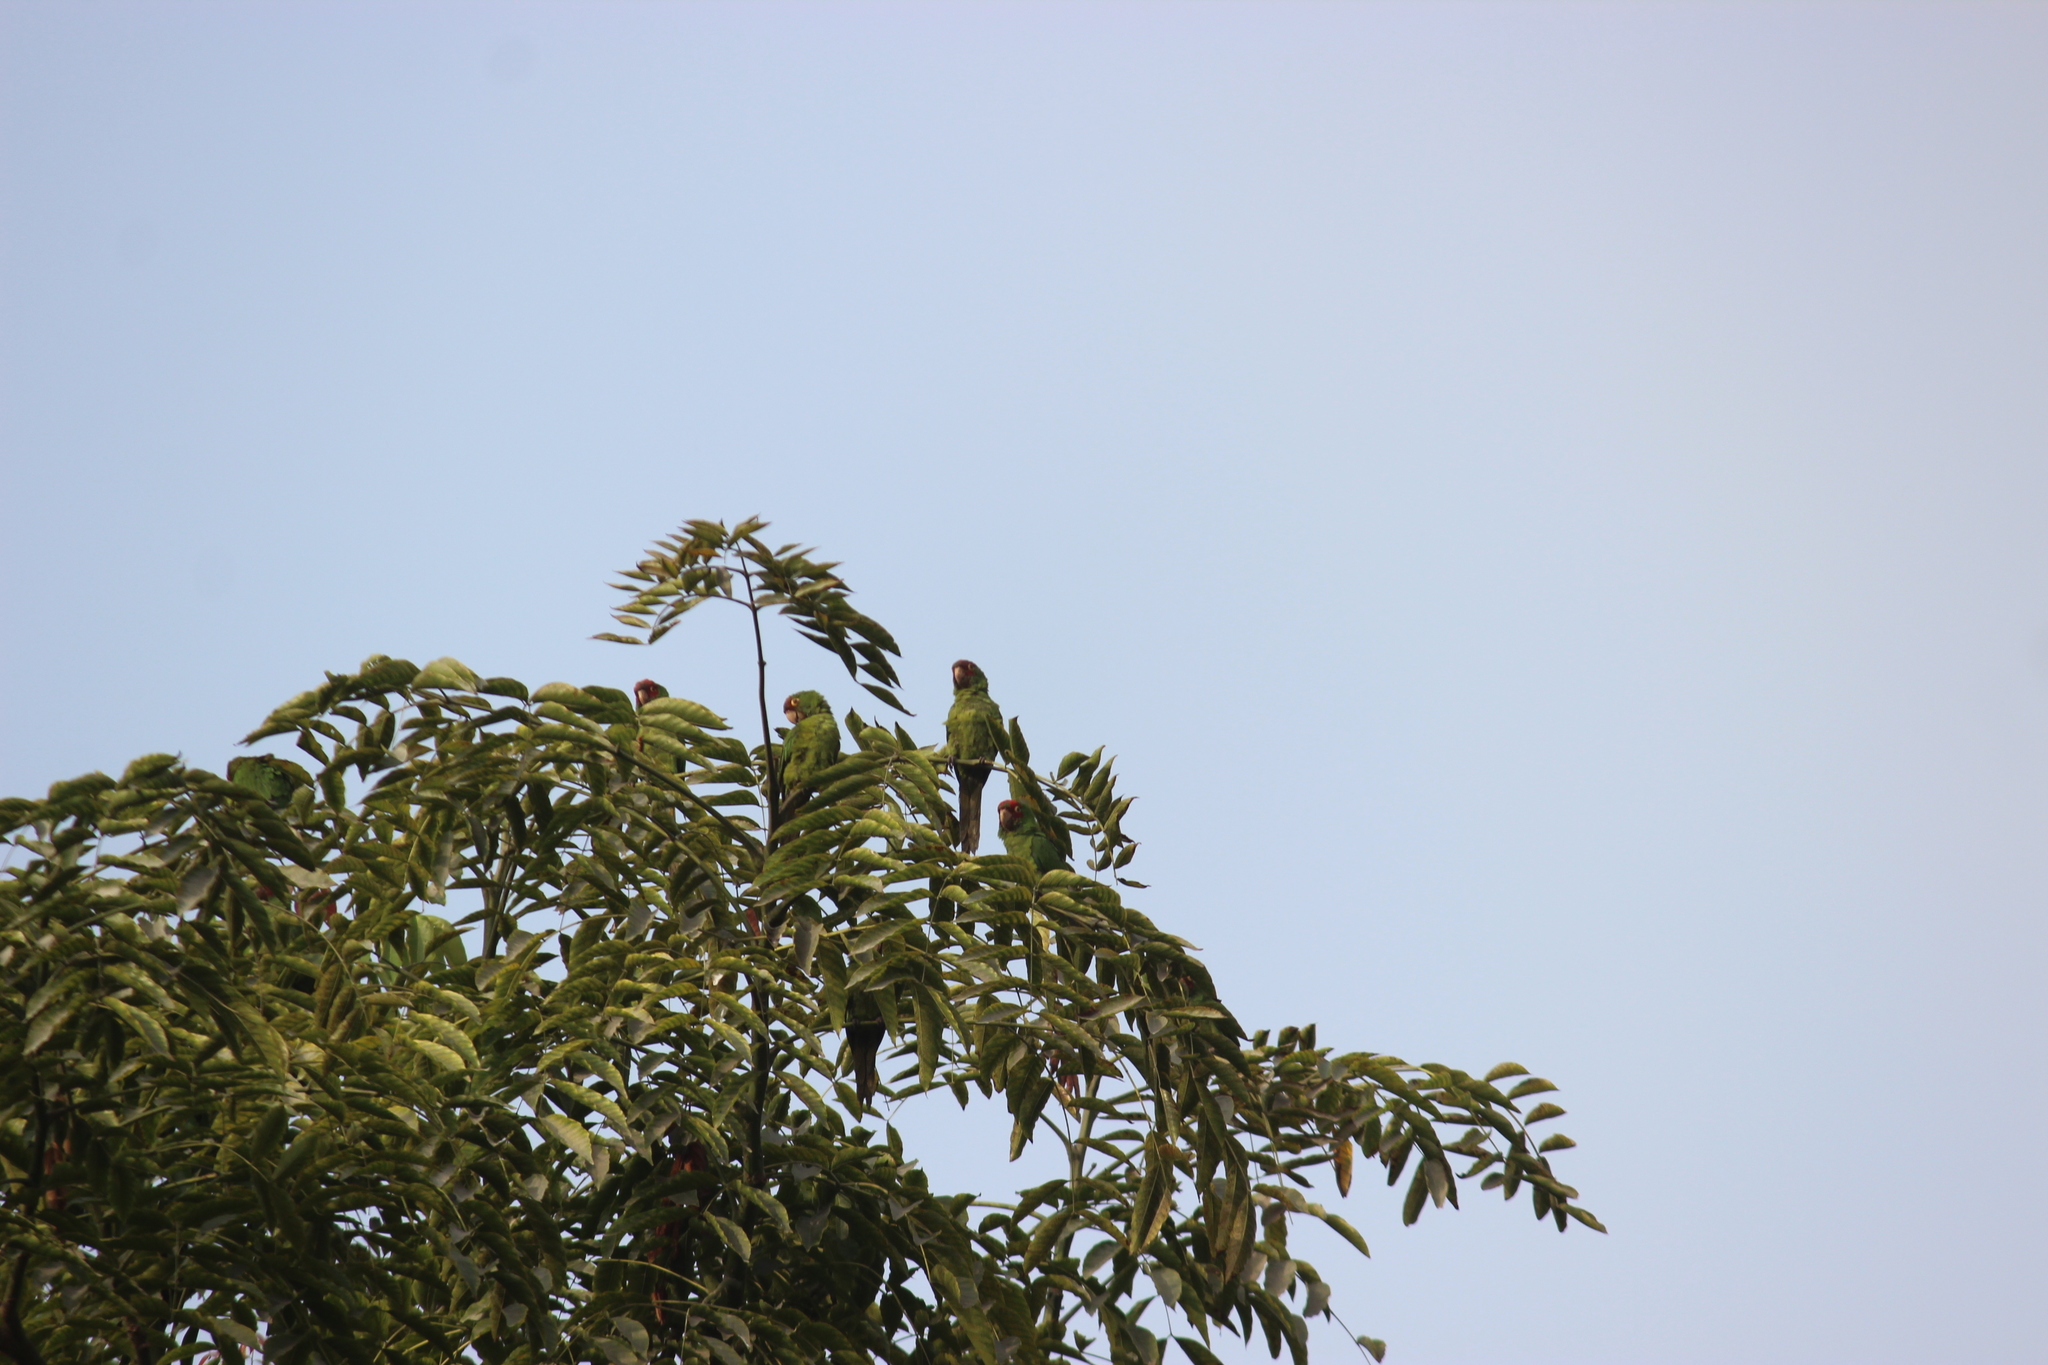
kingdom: Animalia
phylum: Chordata
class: Aves
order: Psittaciformes
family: Psittacidae
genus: Aratinga
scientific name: Aratinga mitrata
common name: Mitred parakeet
